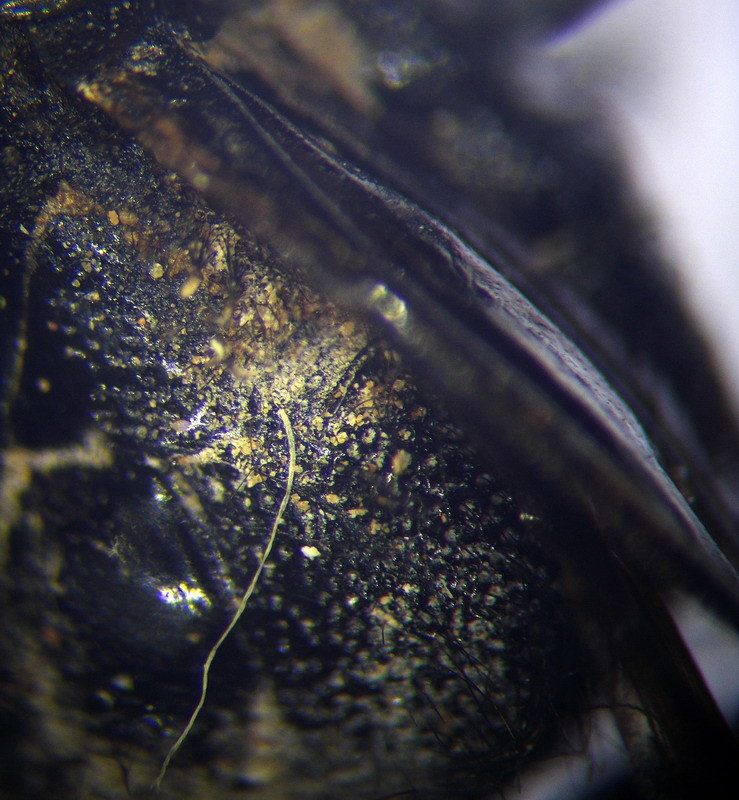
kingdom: Animalia
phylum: Arthropoda
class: Insecta
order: Hymenoptera
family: Scoliidae
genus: Scolia
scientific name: Scolia hirta
